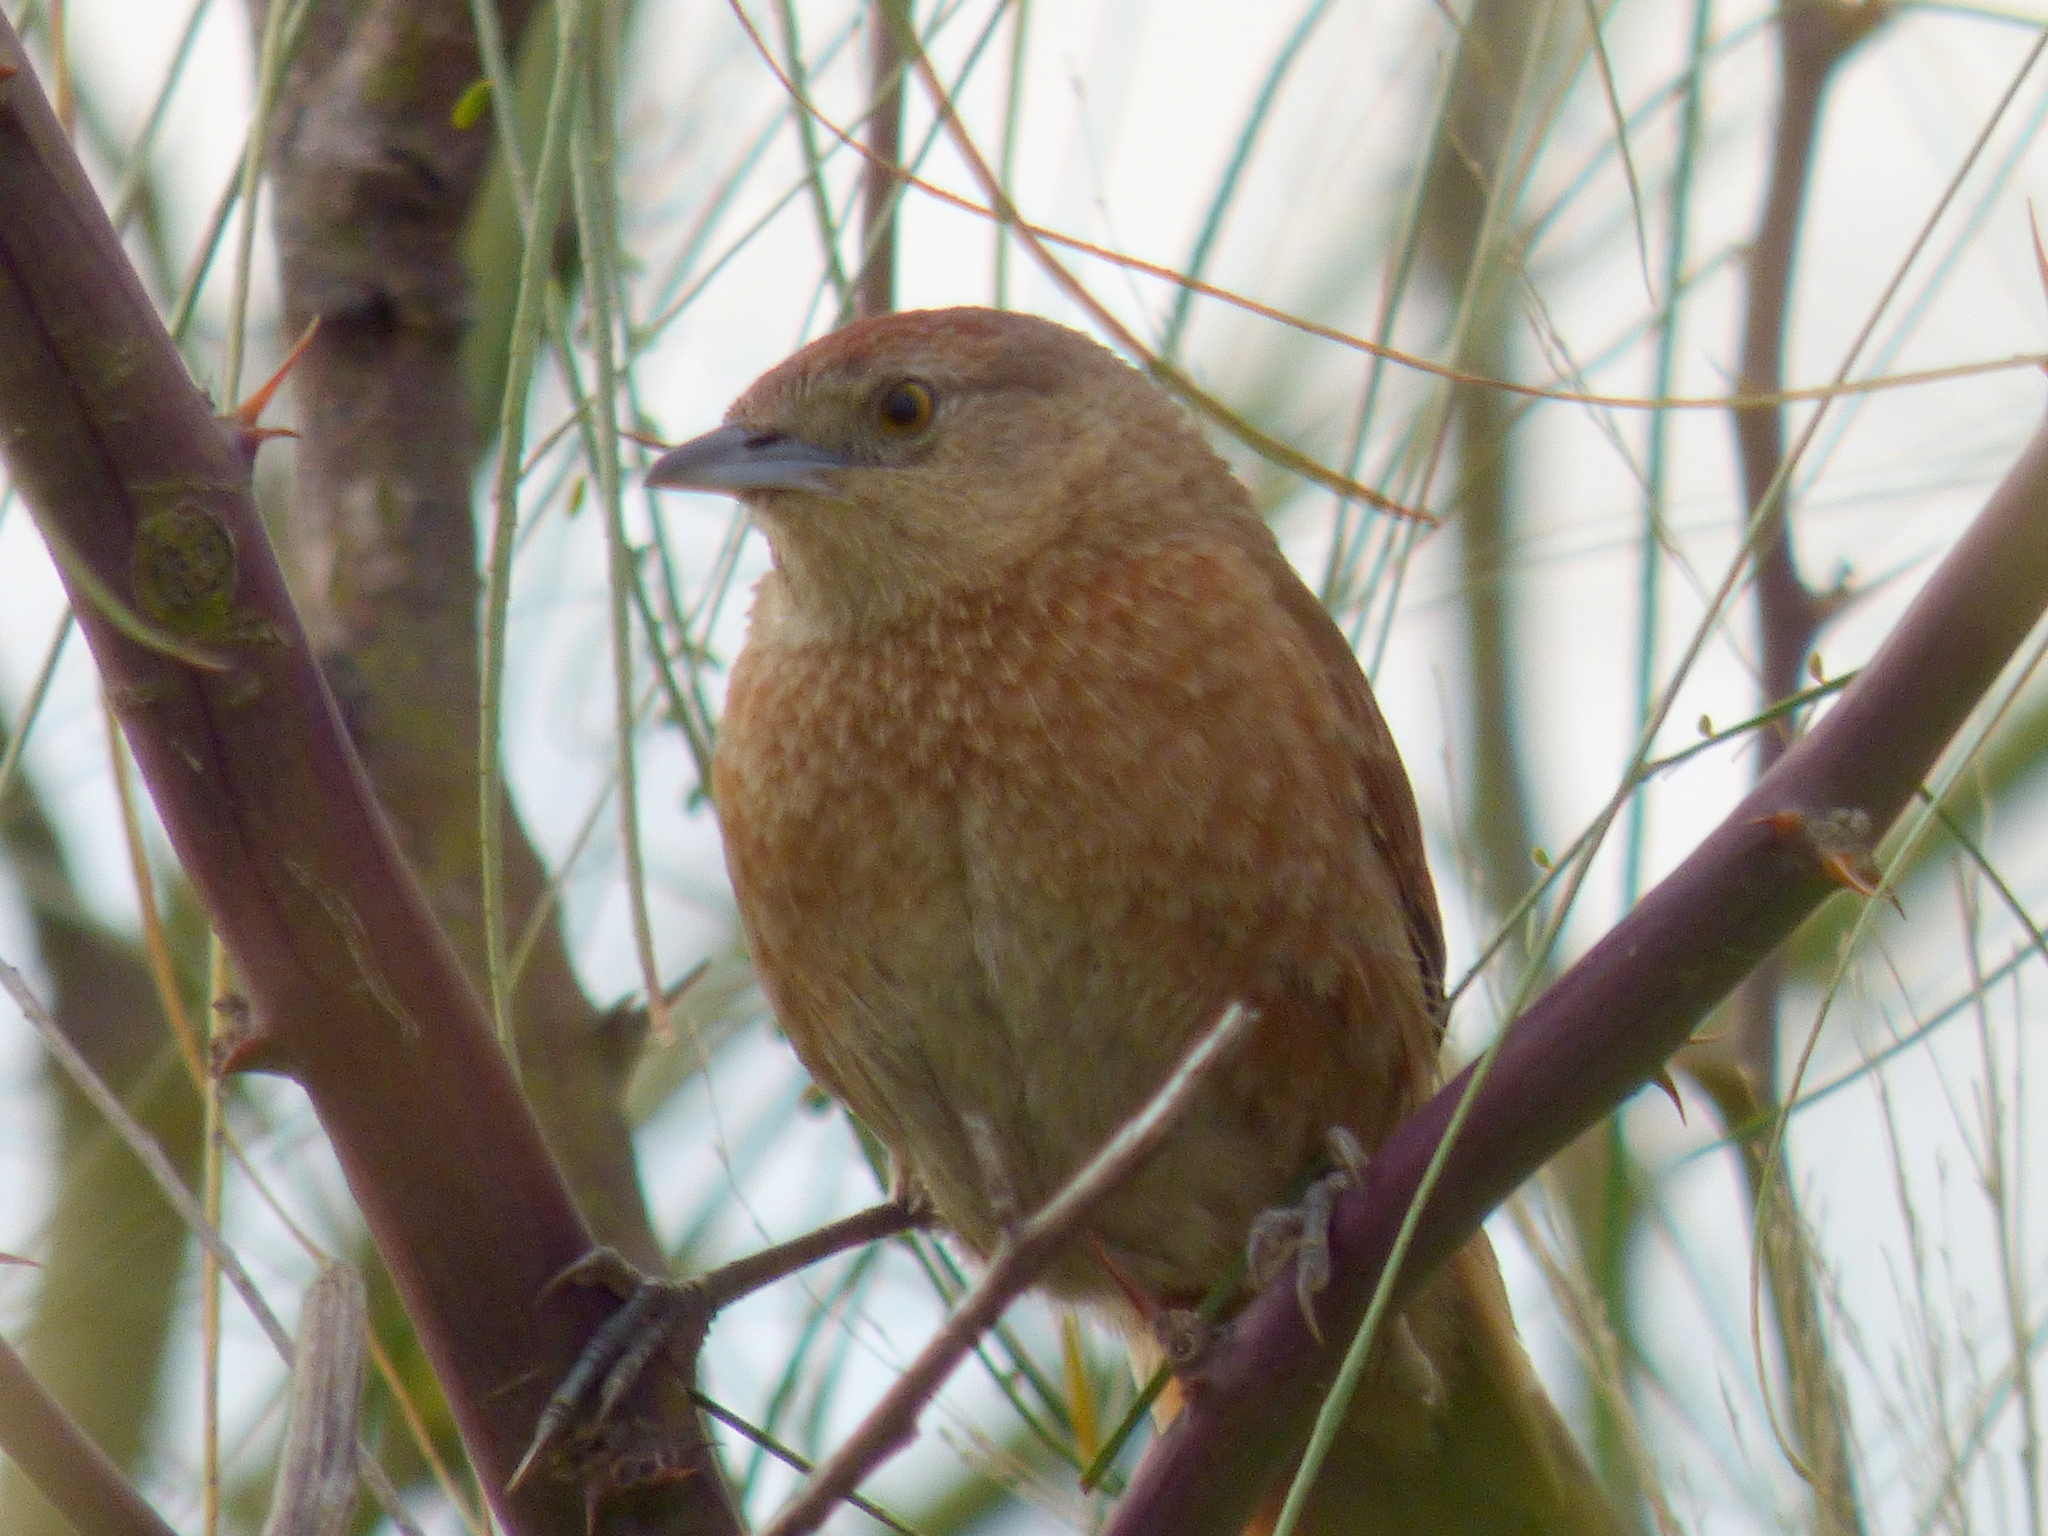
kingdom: Animalia
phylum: Chordata
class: Aves
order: Passeriformes
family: Furnariidae
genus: Phacellodomus
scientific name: Phacellodomus striaticollis
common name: Freckle-breasted thornbird
